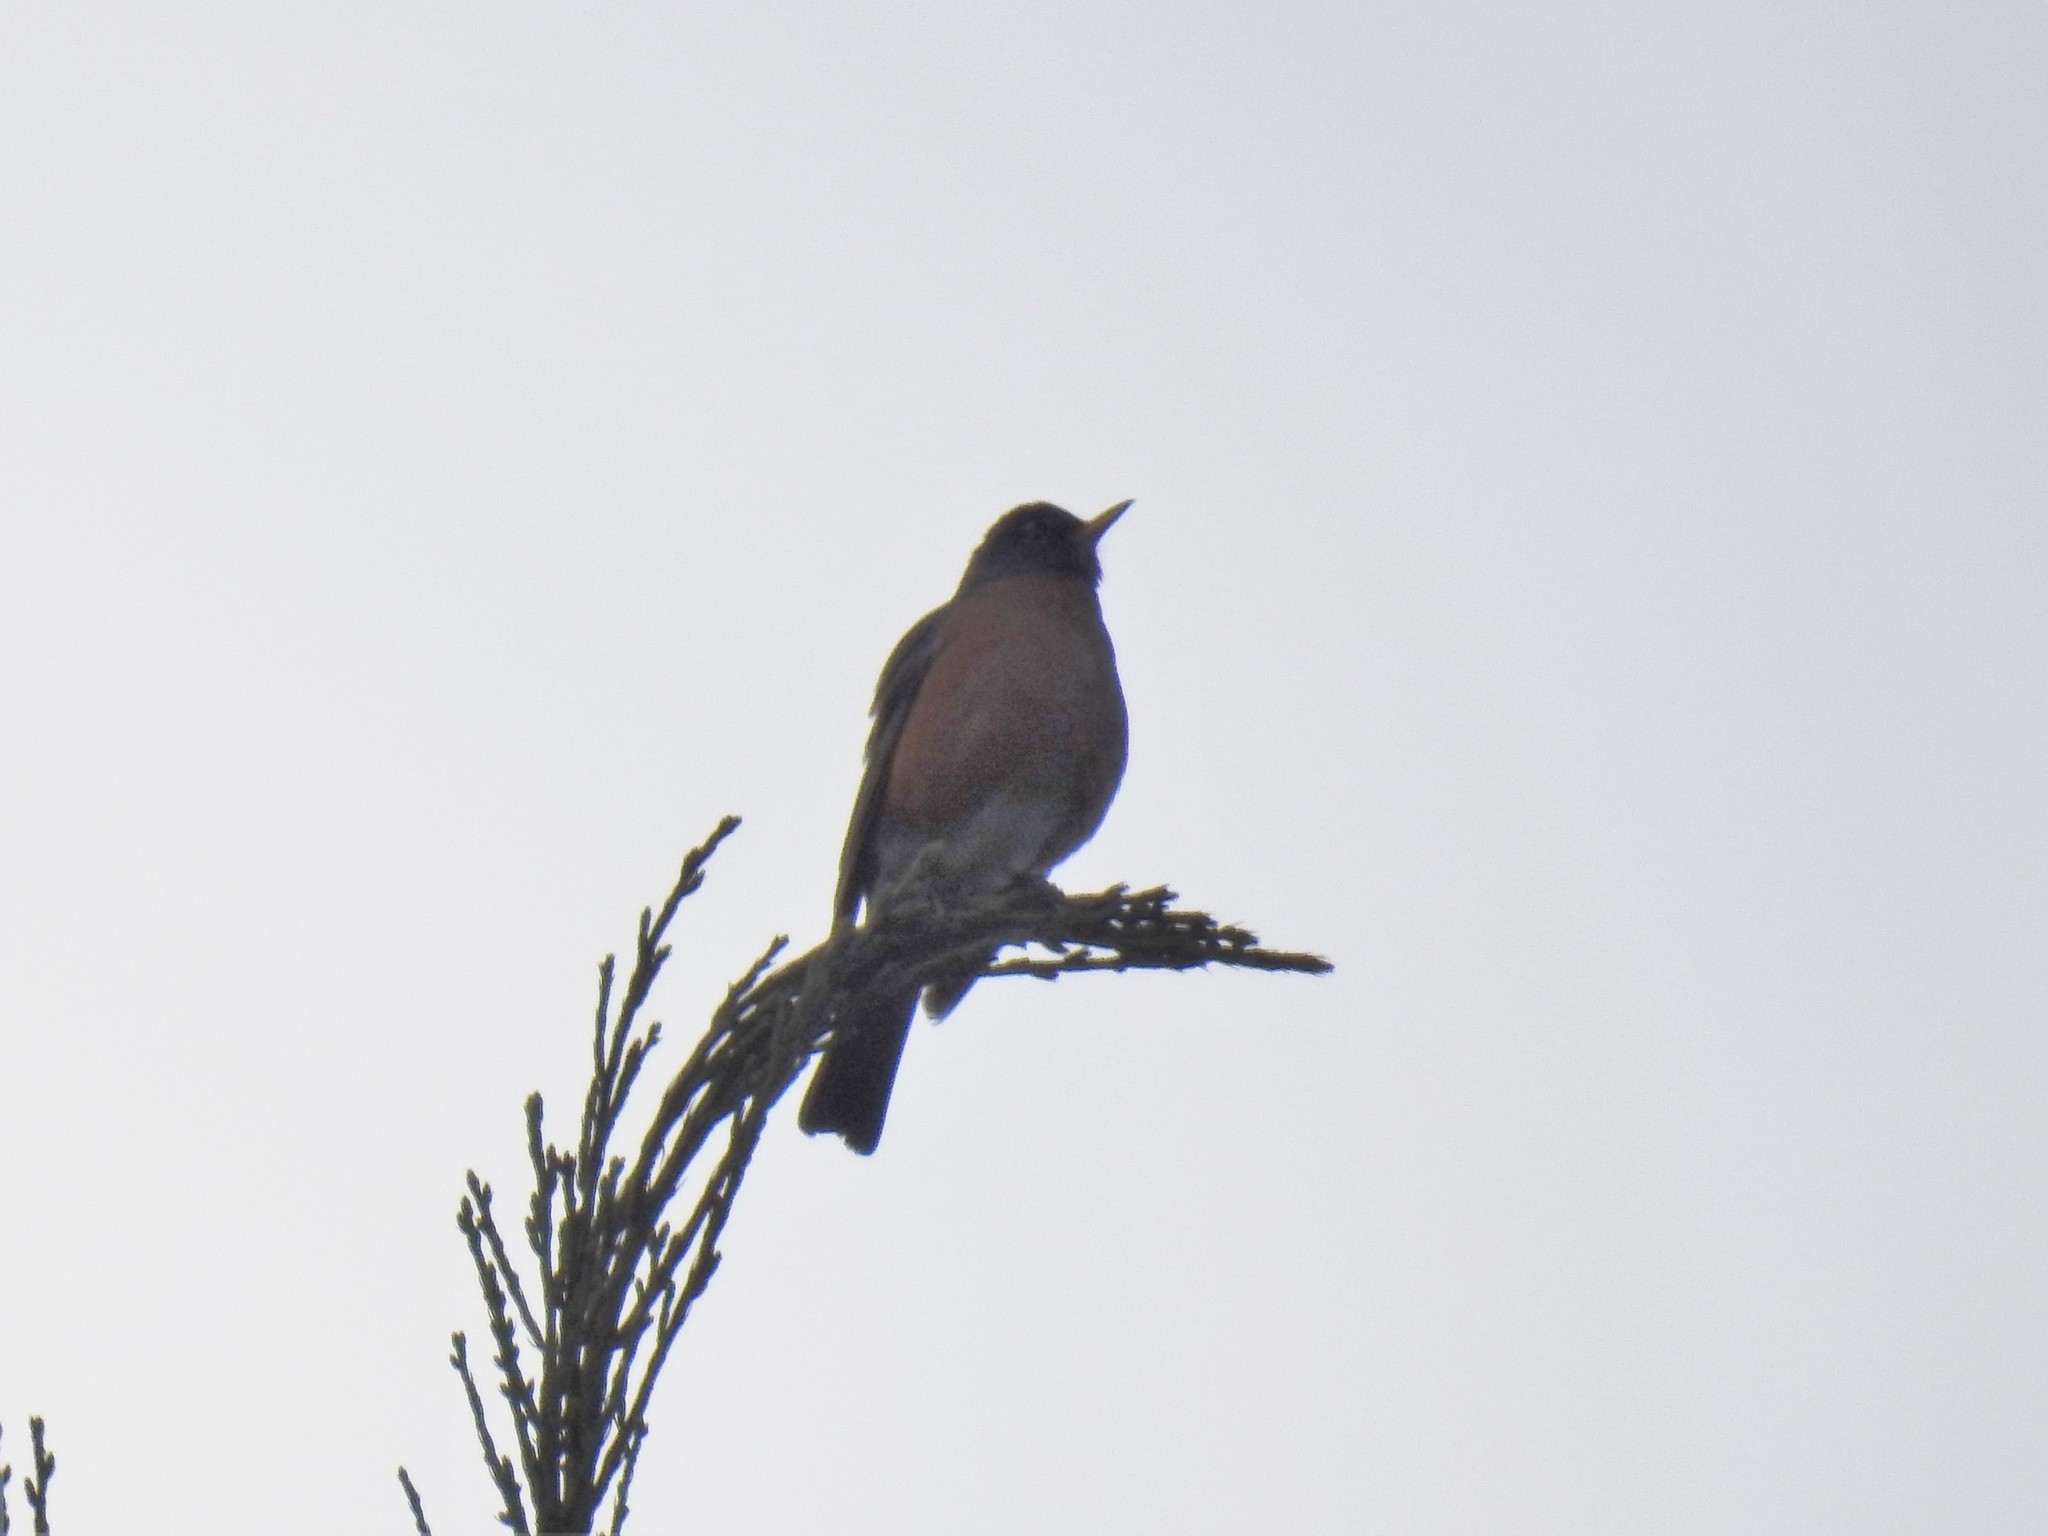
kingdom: Animalia
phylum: Chordata
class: Aves
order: Passeriformes
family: Turdidae
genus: Turdus
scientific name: Turdus migratorius
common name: American robin
